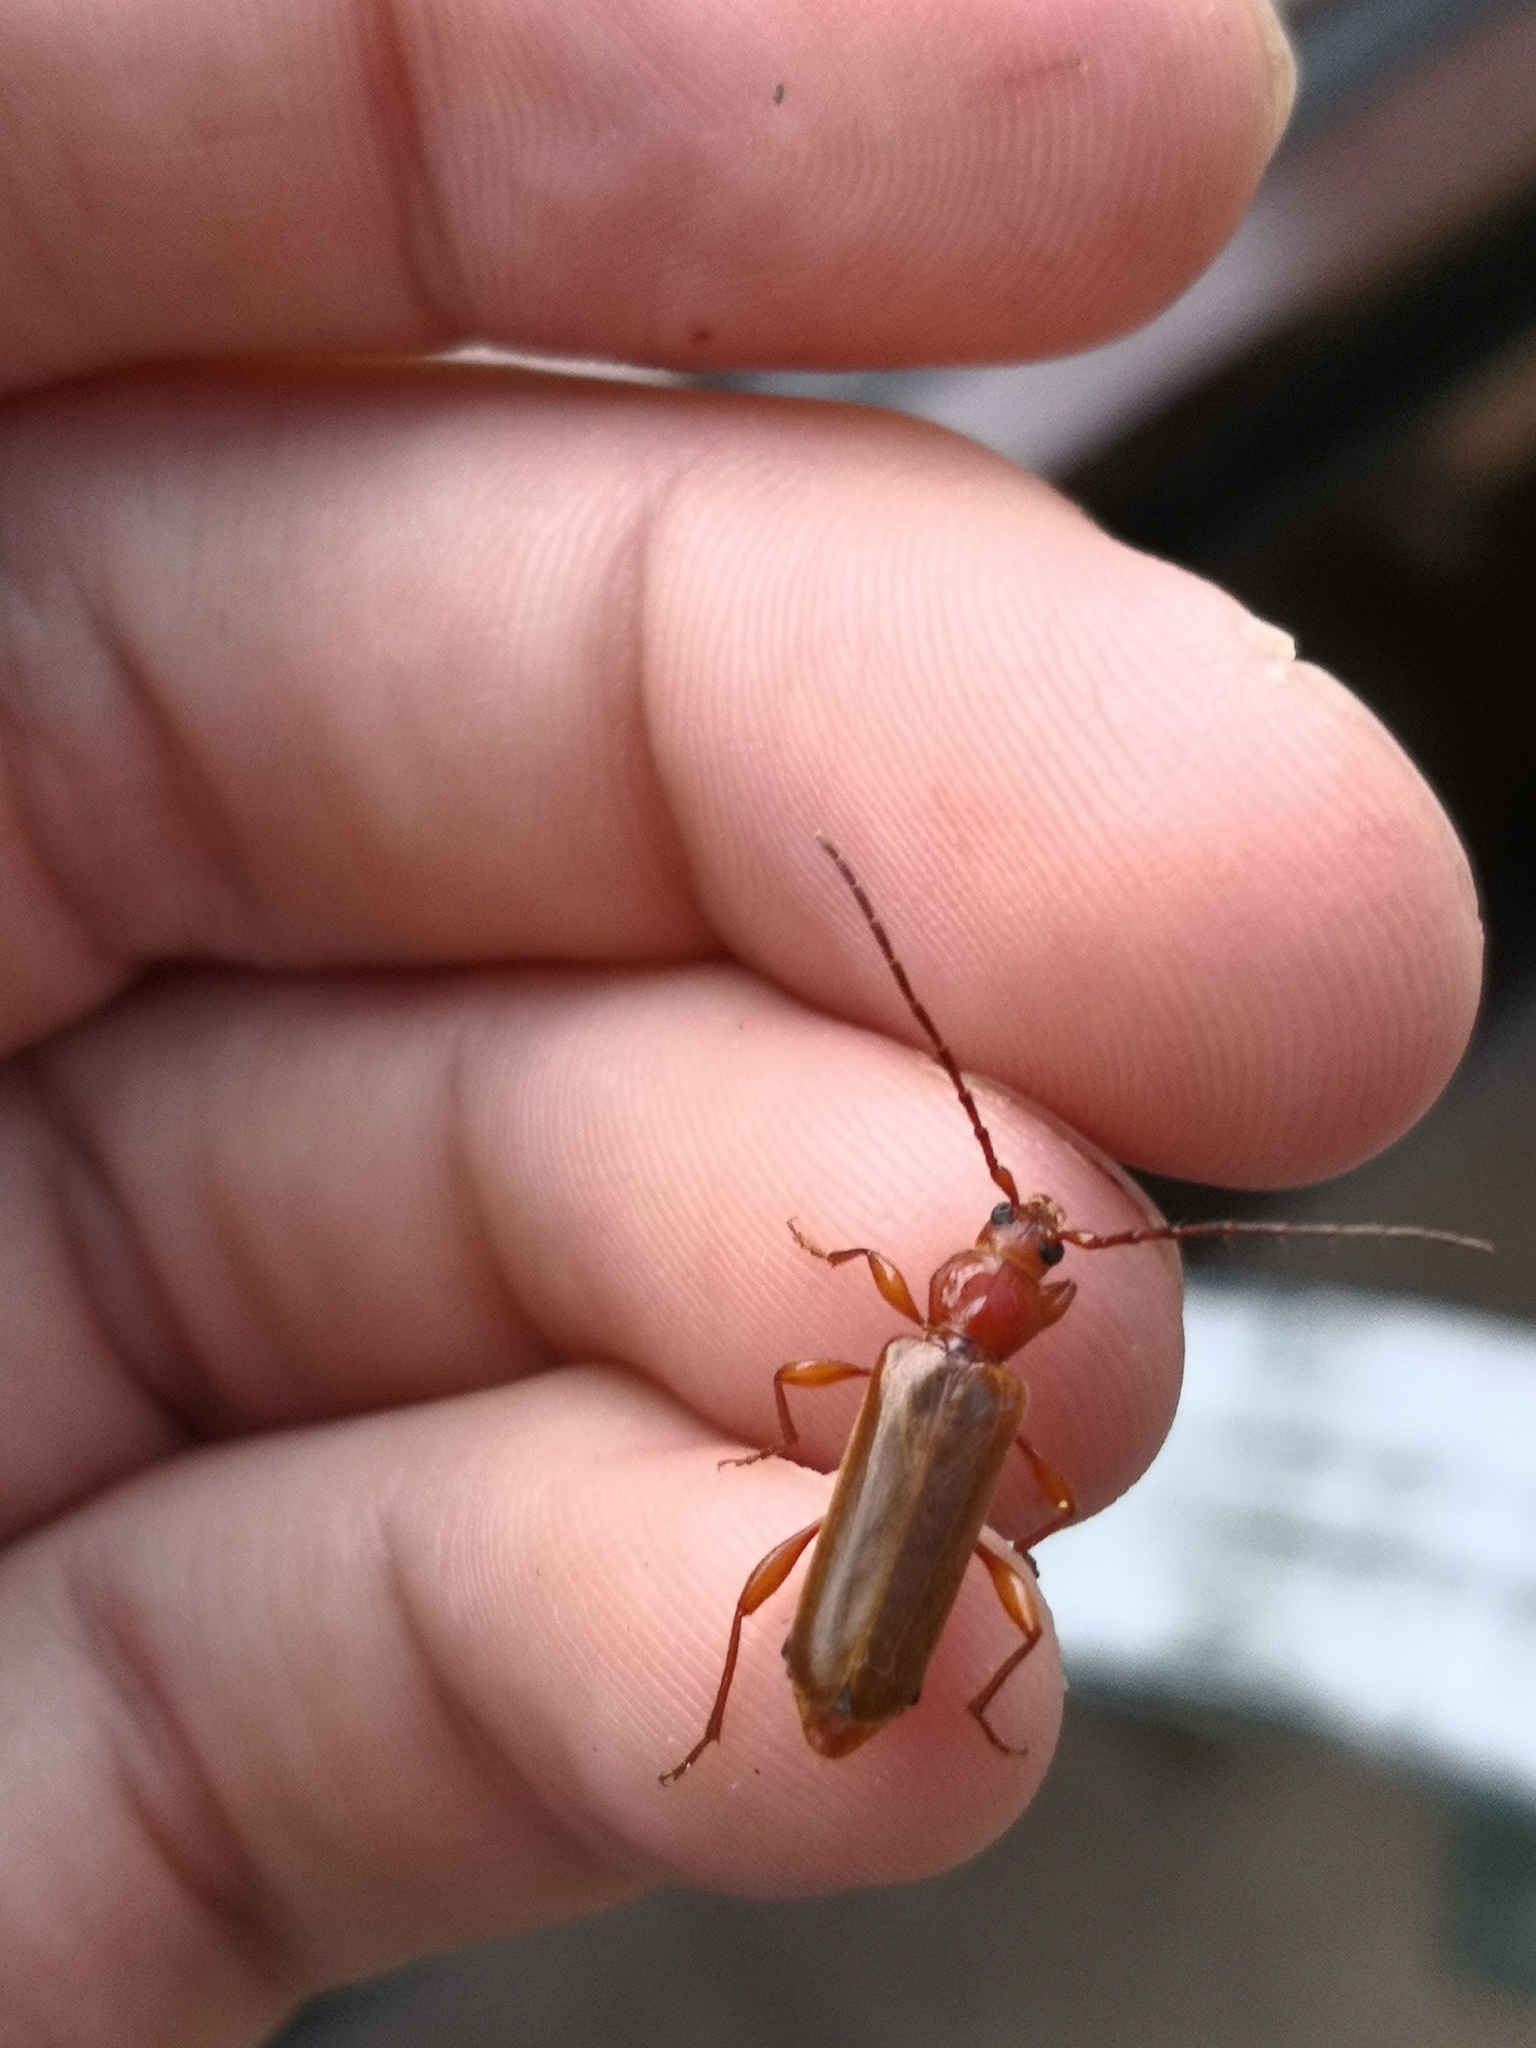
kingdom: Animalia
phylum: Arthropoda
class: Insecta
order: Coleoptera
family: Cerambycidae
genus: Phymatodes
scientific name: Phymatodes testaceus
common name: Long-horned beetle
